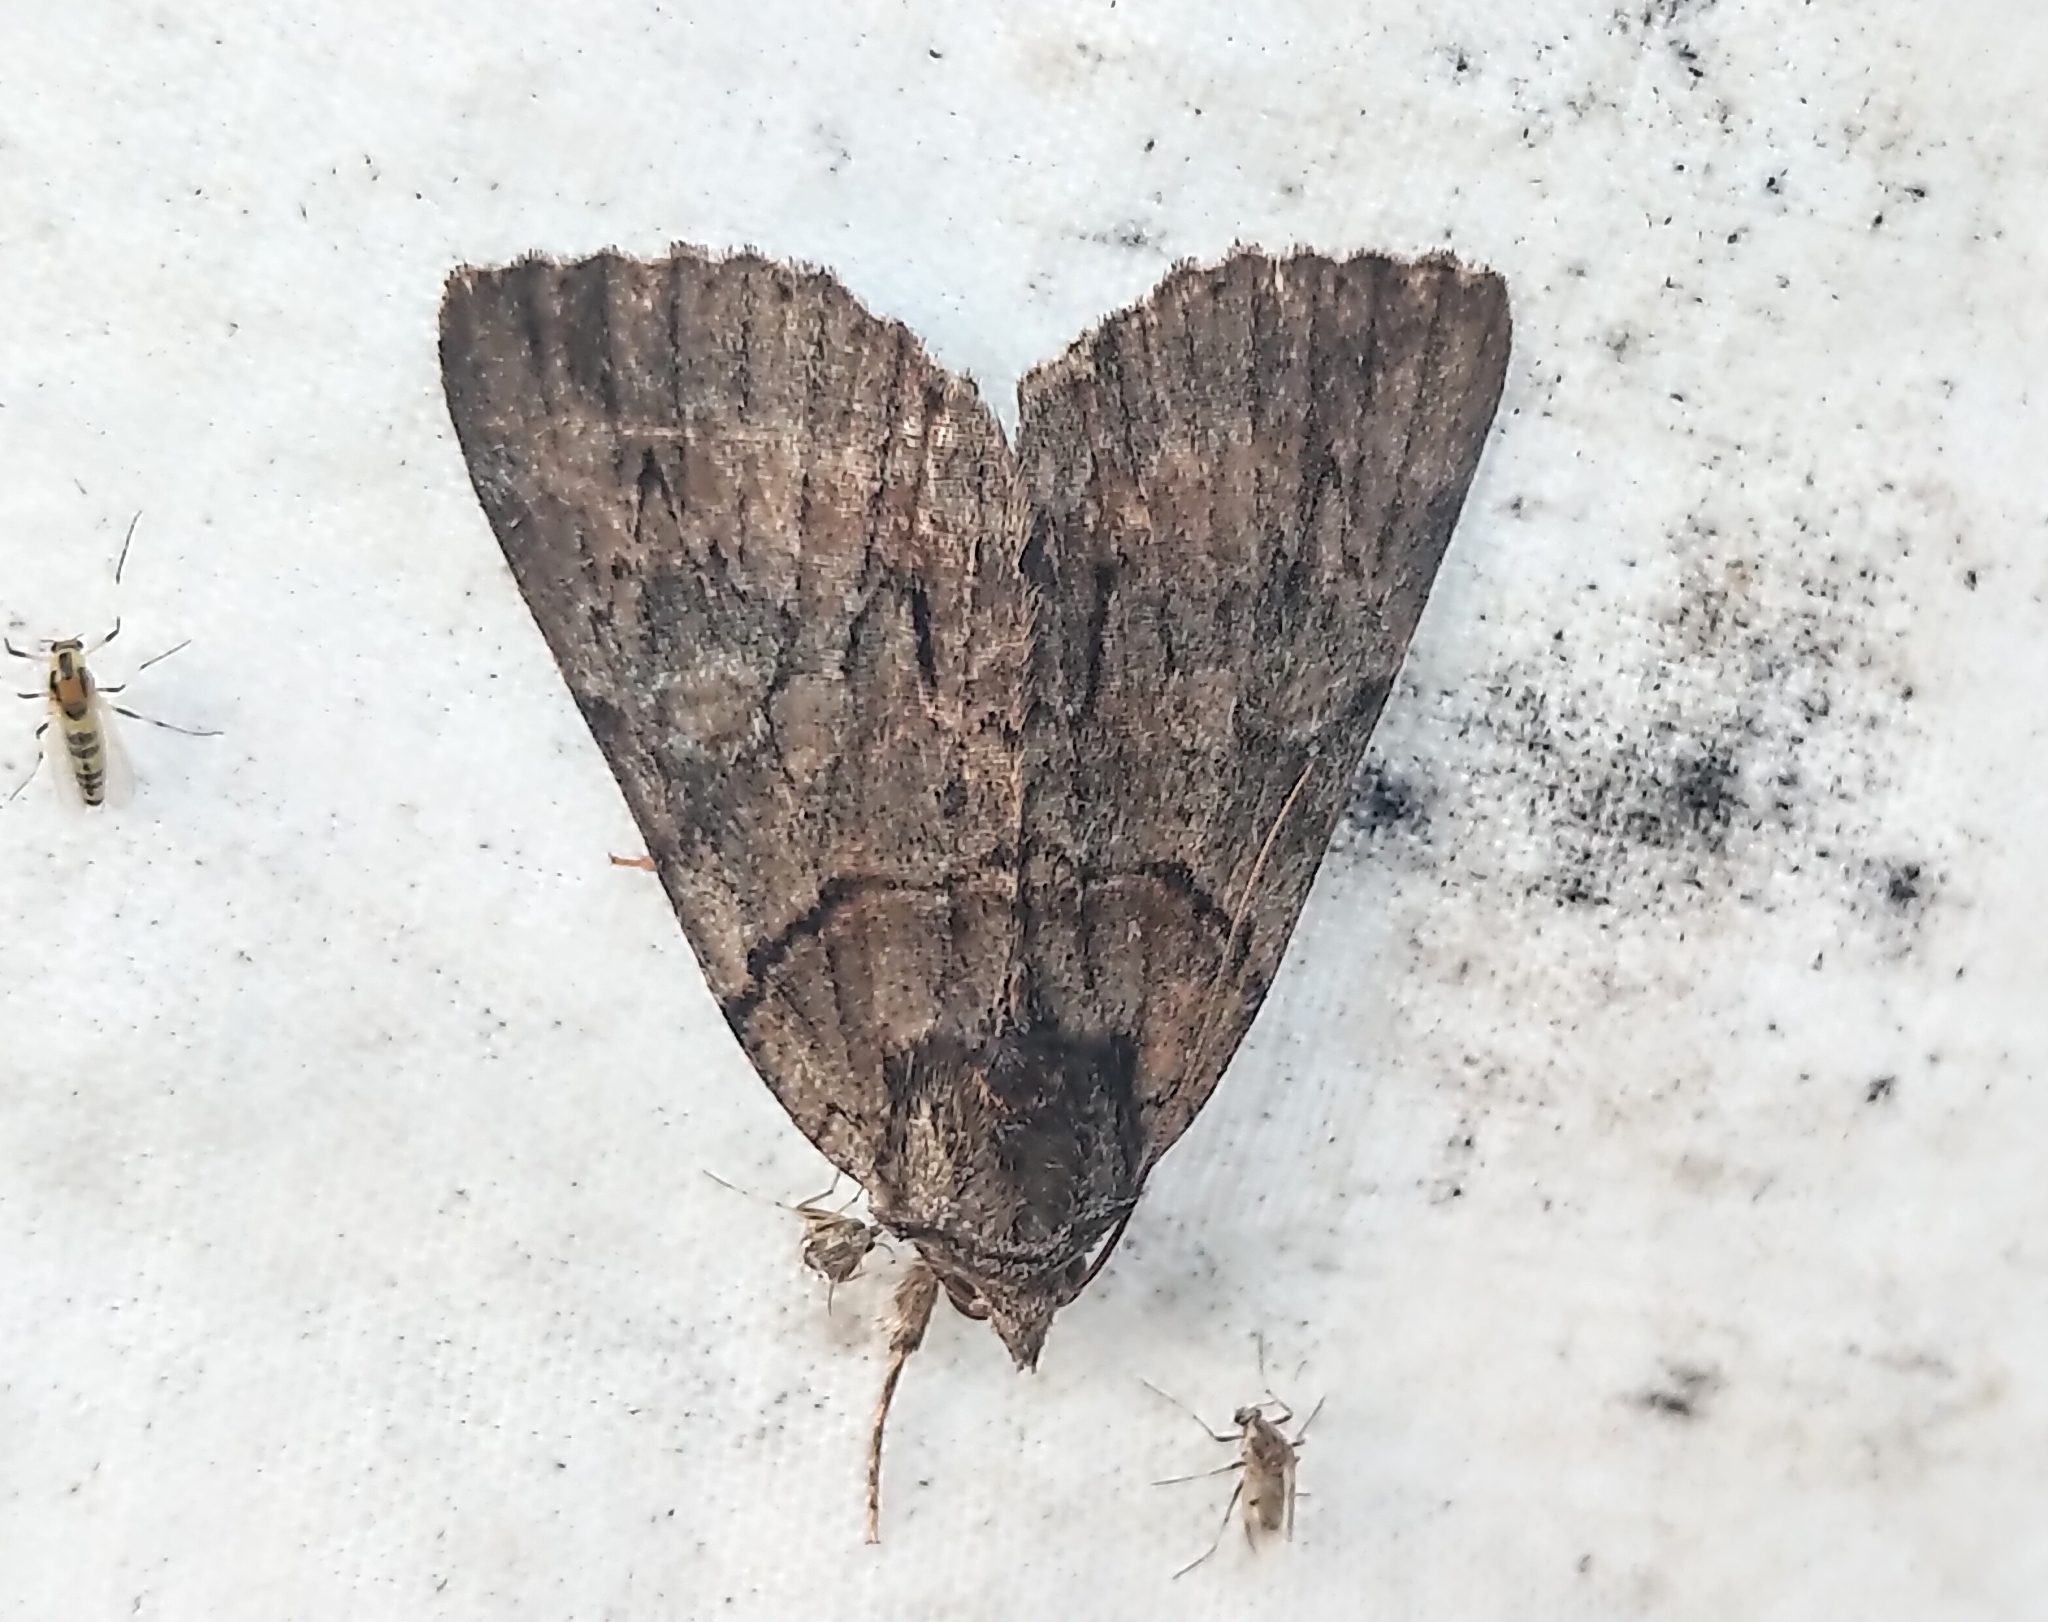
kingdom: Animalia
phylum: Arthropoda
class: Insecta
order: Lepidoptera
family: Erebidae
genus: Catocala
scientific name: Catocala praeclara
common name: Praeclara underwing
